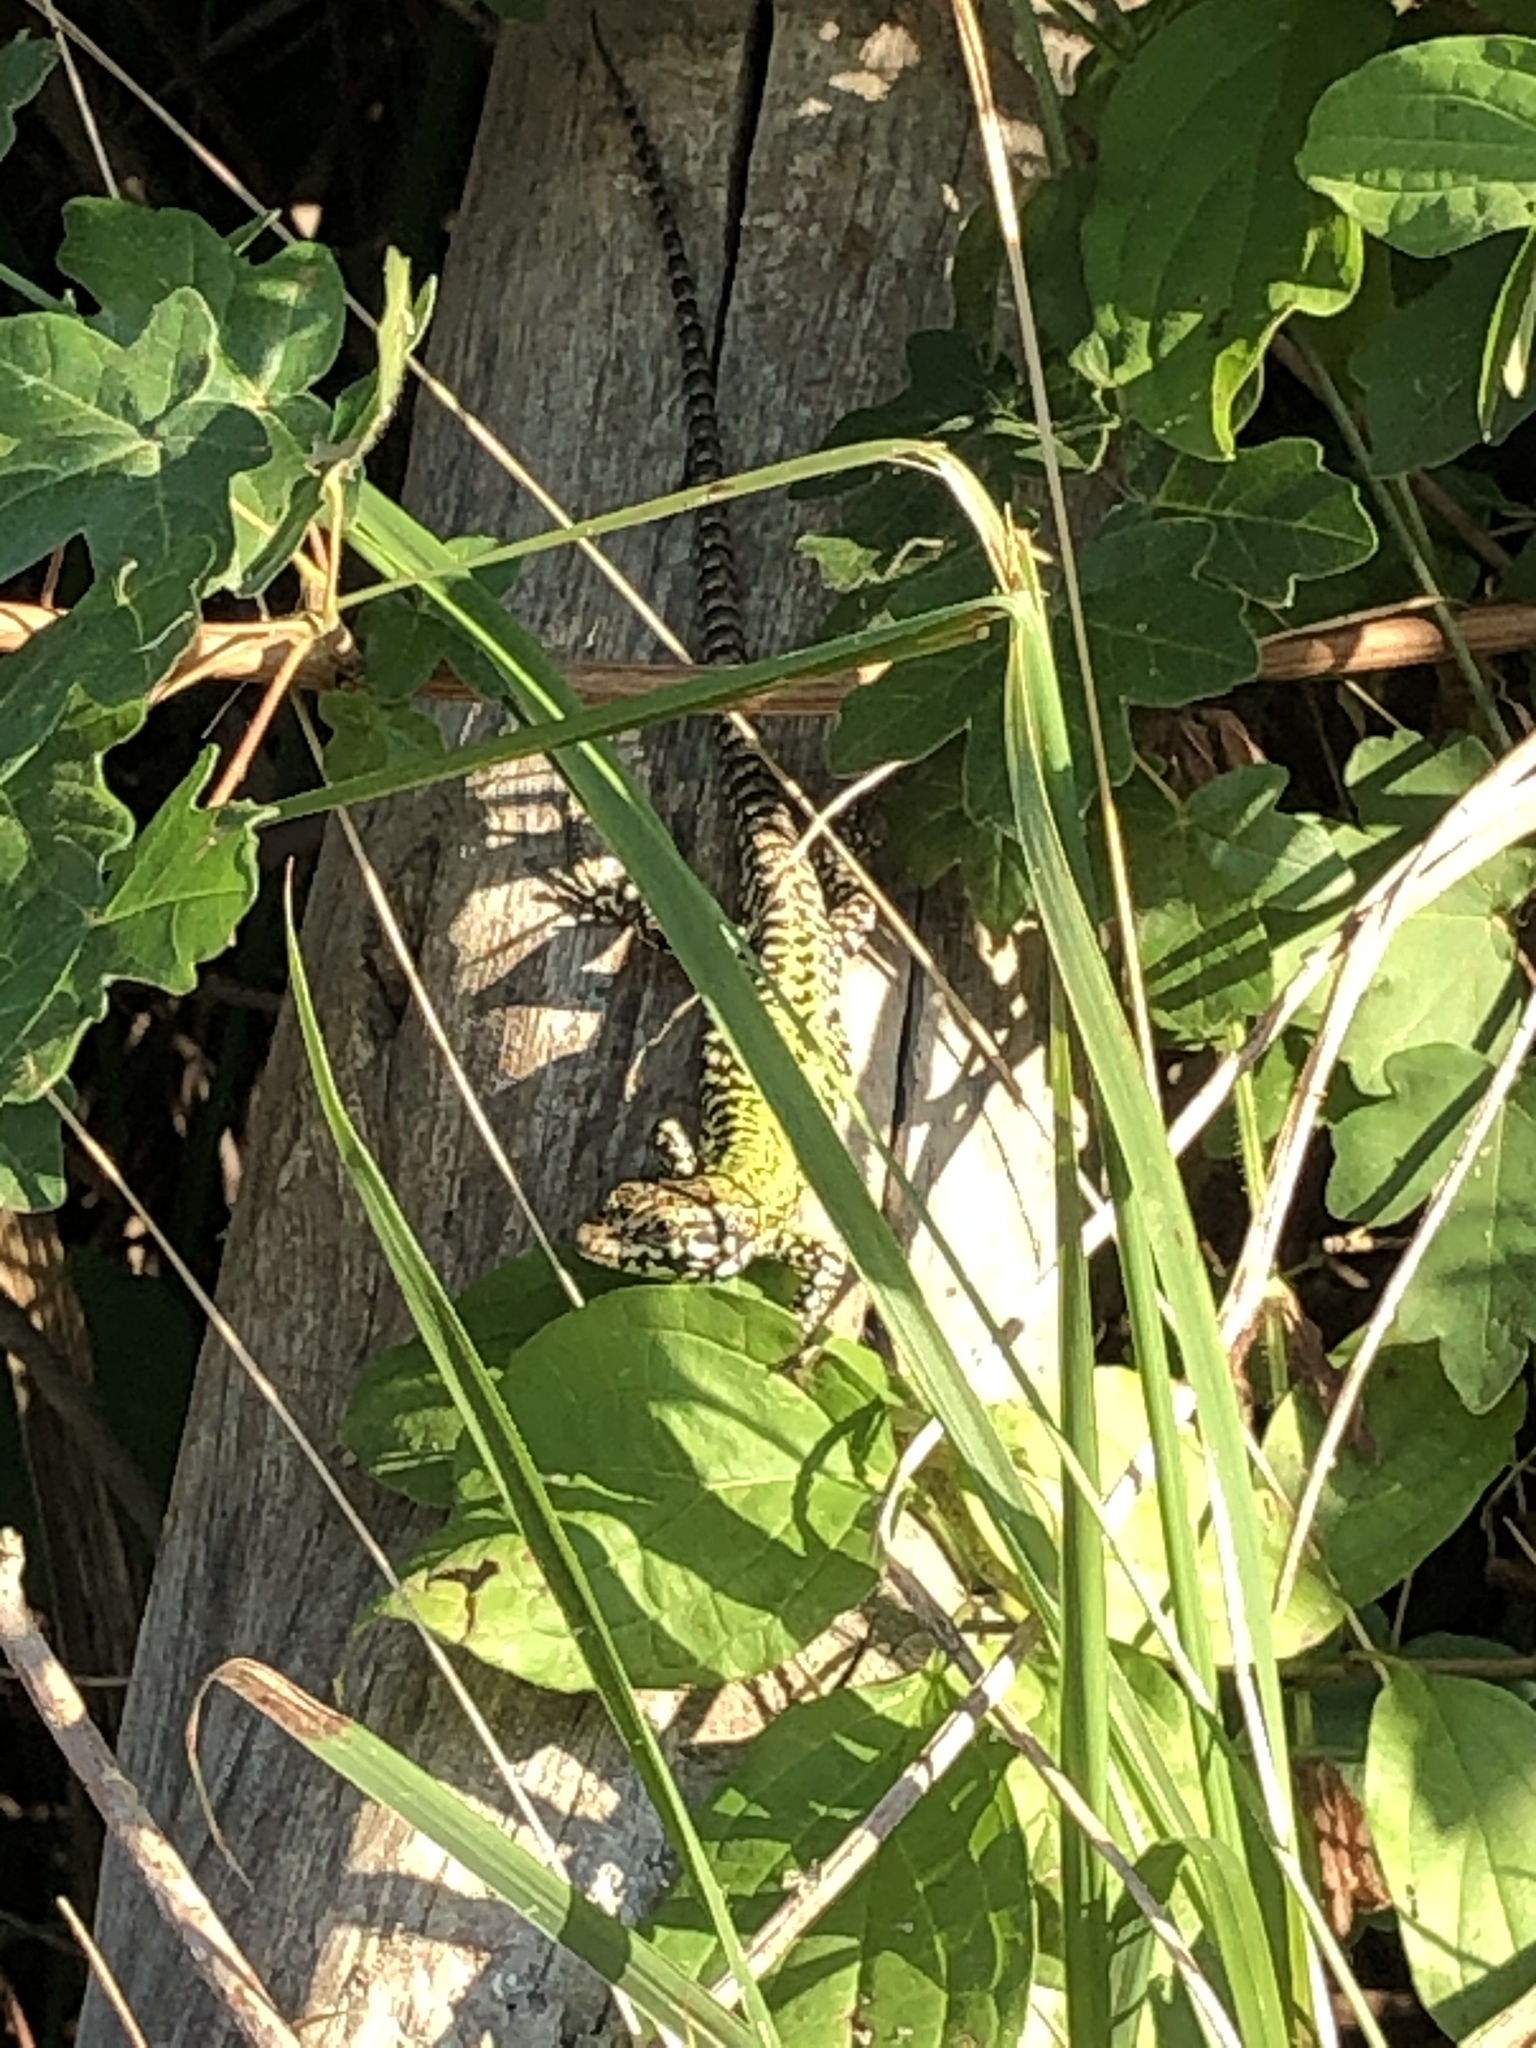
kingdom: Animalia
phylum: Chordata
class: Squamata
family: Lacertidae
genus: Podarcis
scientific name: Podarcis muralis
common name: Common wall lizard
